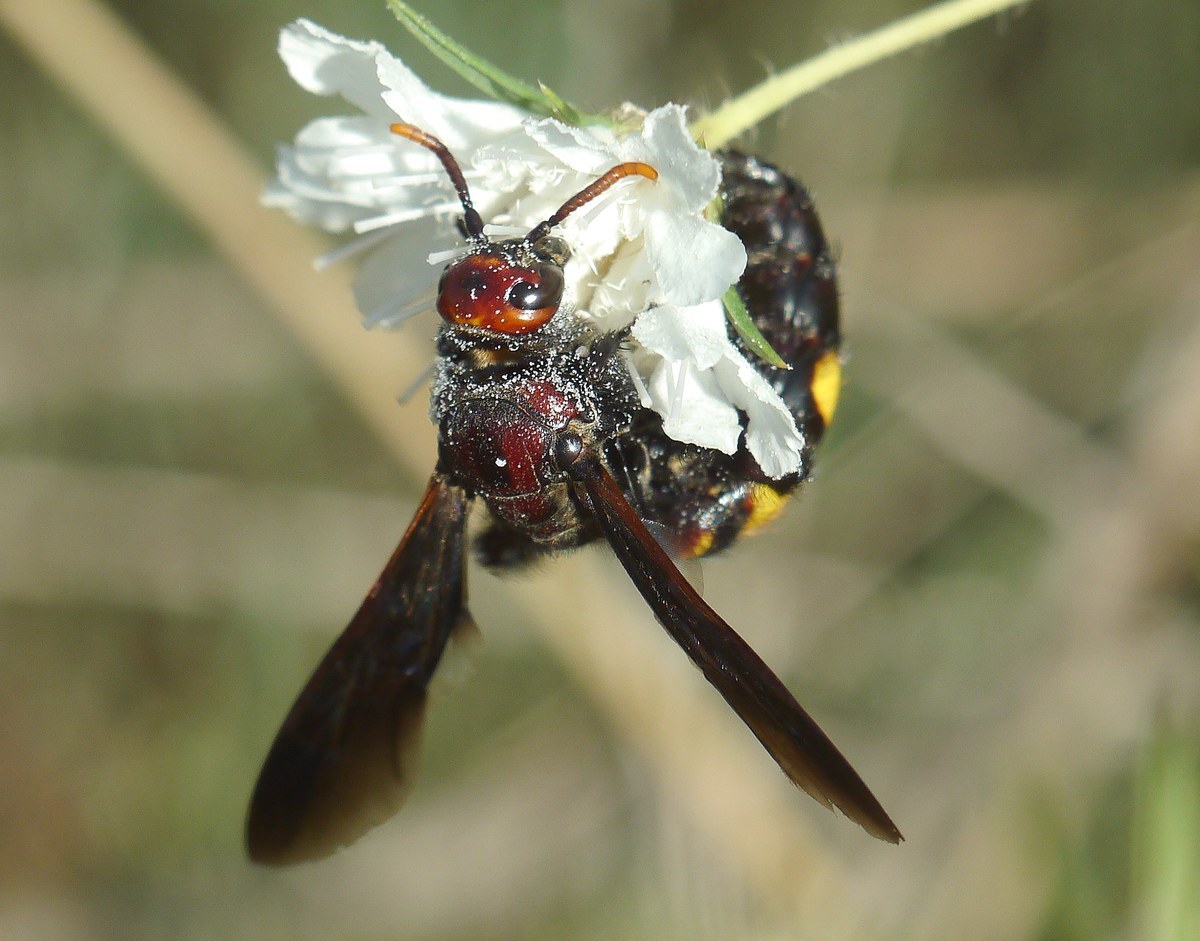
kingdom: Animalia
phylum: Arthropoda
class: Insecta
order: Hymenoptera
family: Vespidae
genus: Vespa
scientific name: Vespa galbula
